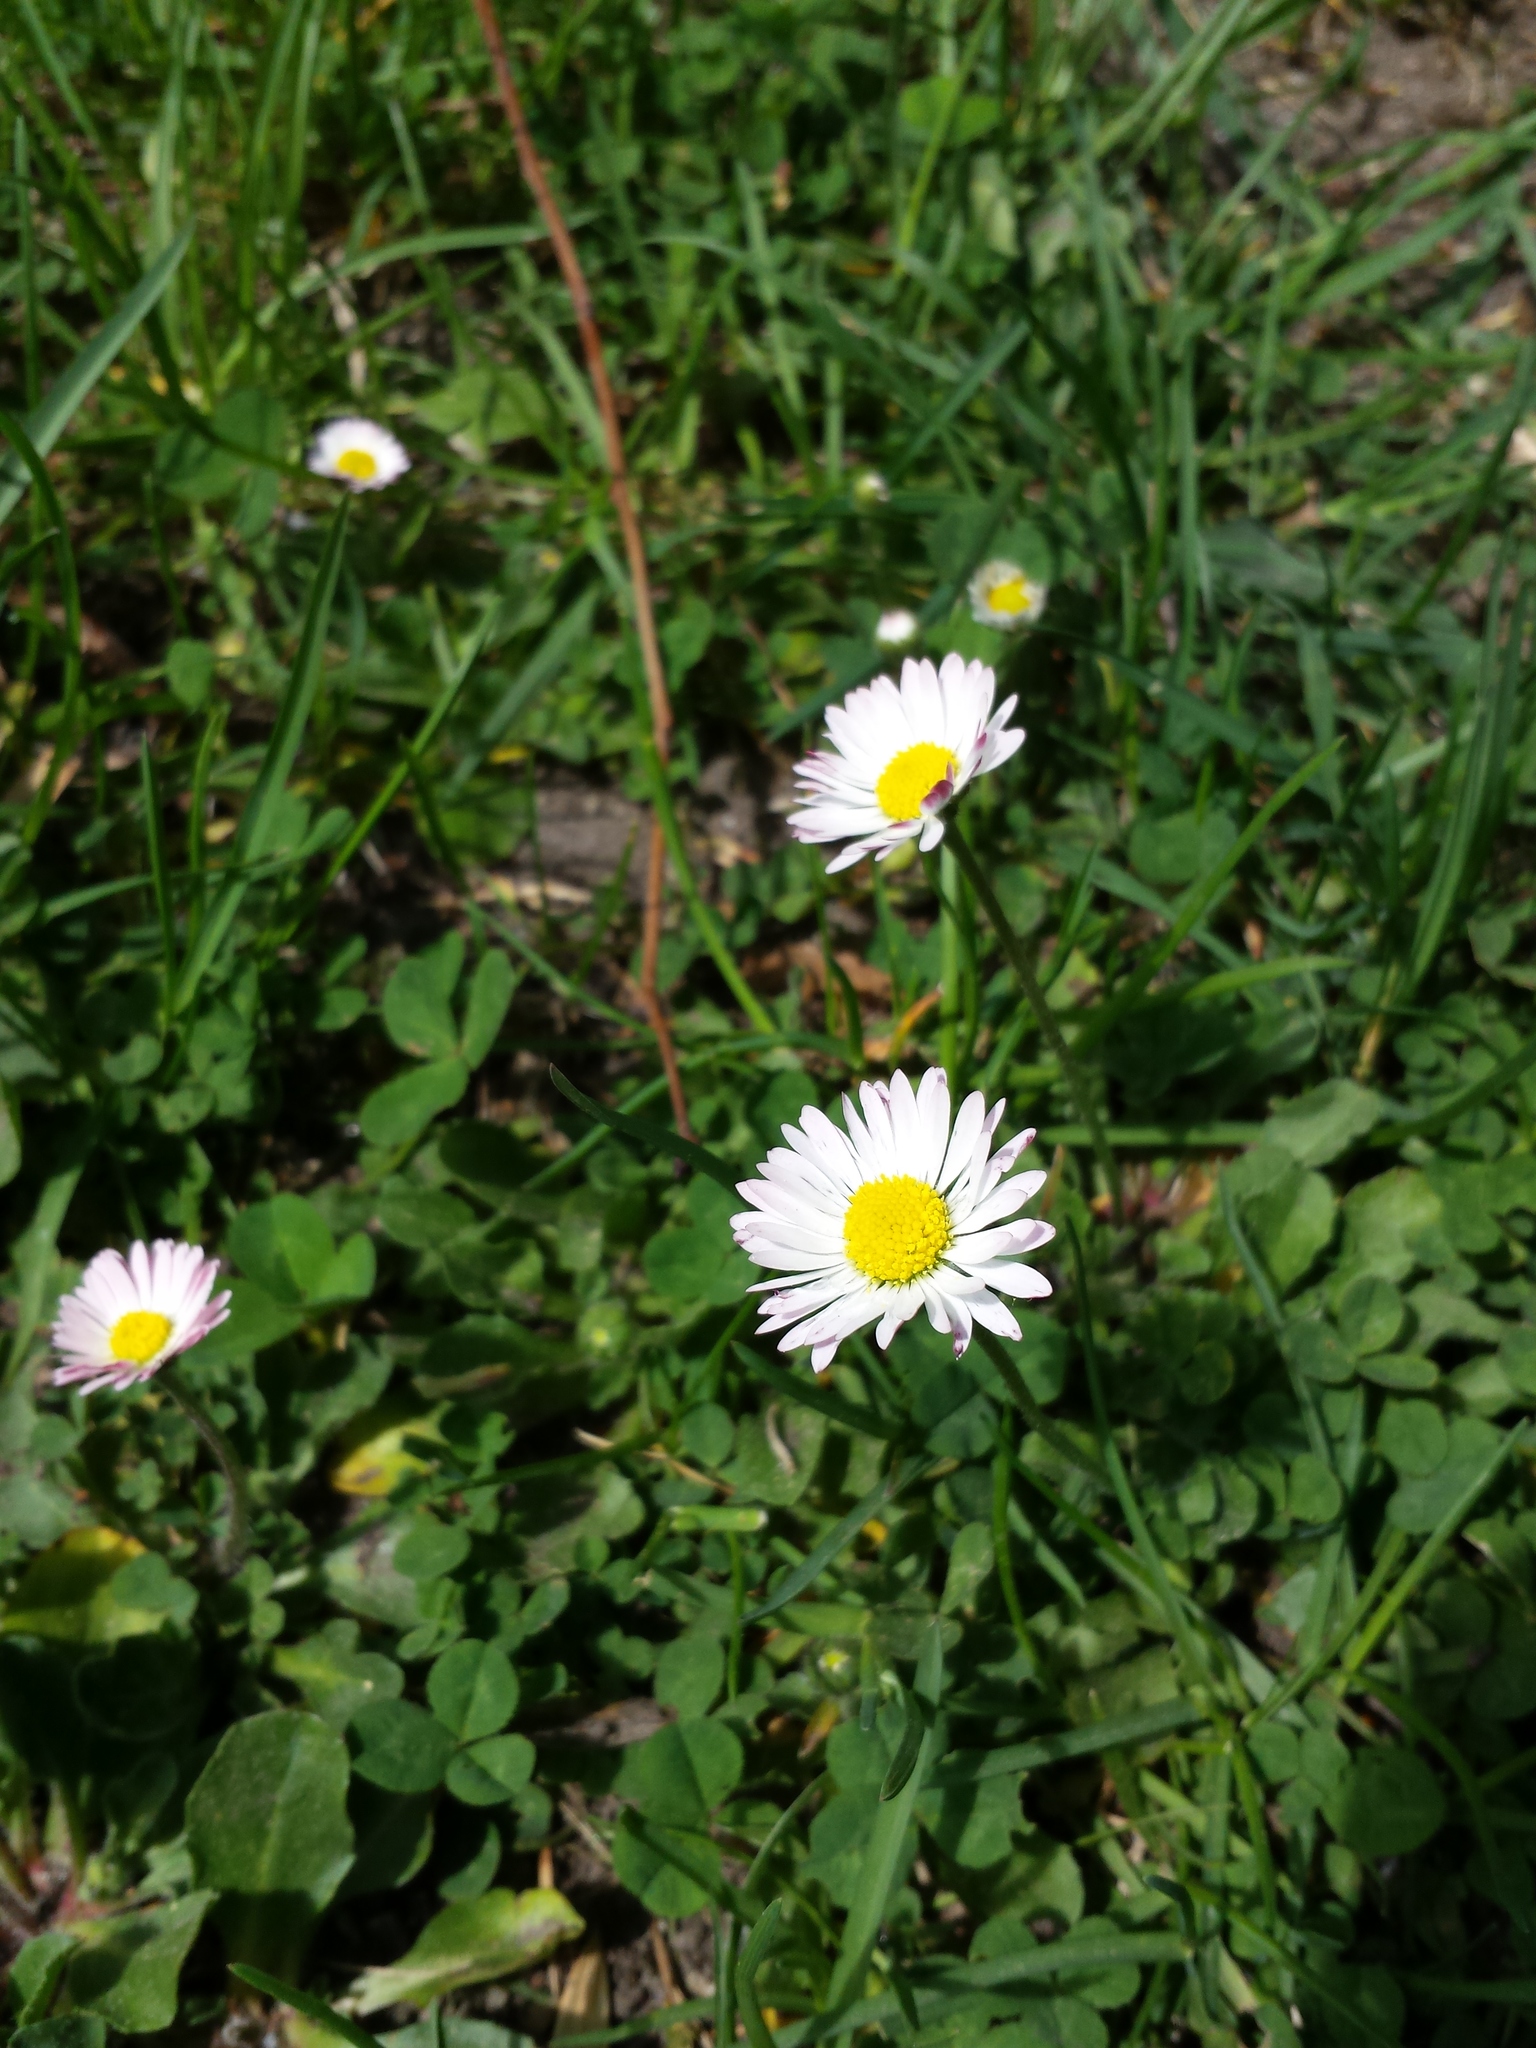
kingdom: Plantae
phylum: Tracheophyta
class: Magnoliopsida
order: Asterales
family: Asteraceae
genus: Bellis
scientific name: Bellis perennis
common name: Lawndaisy
